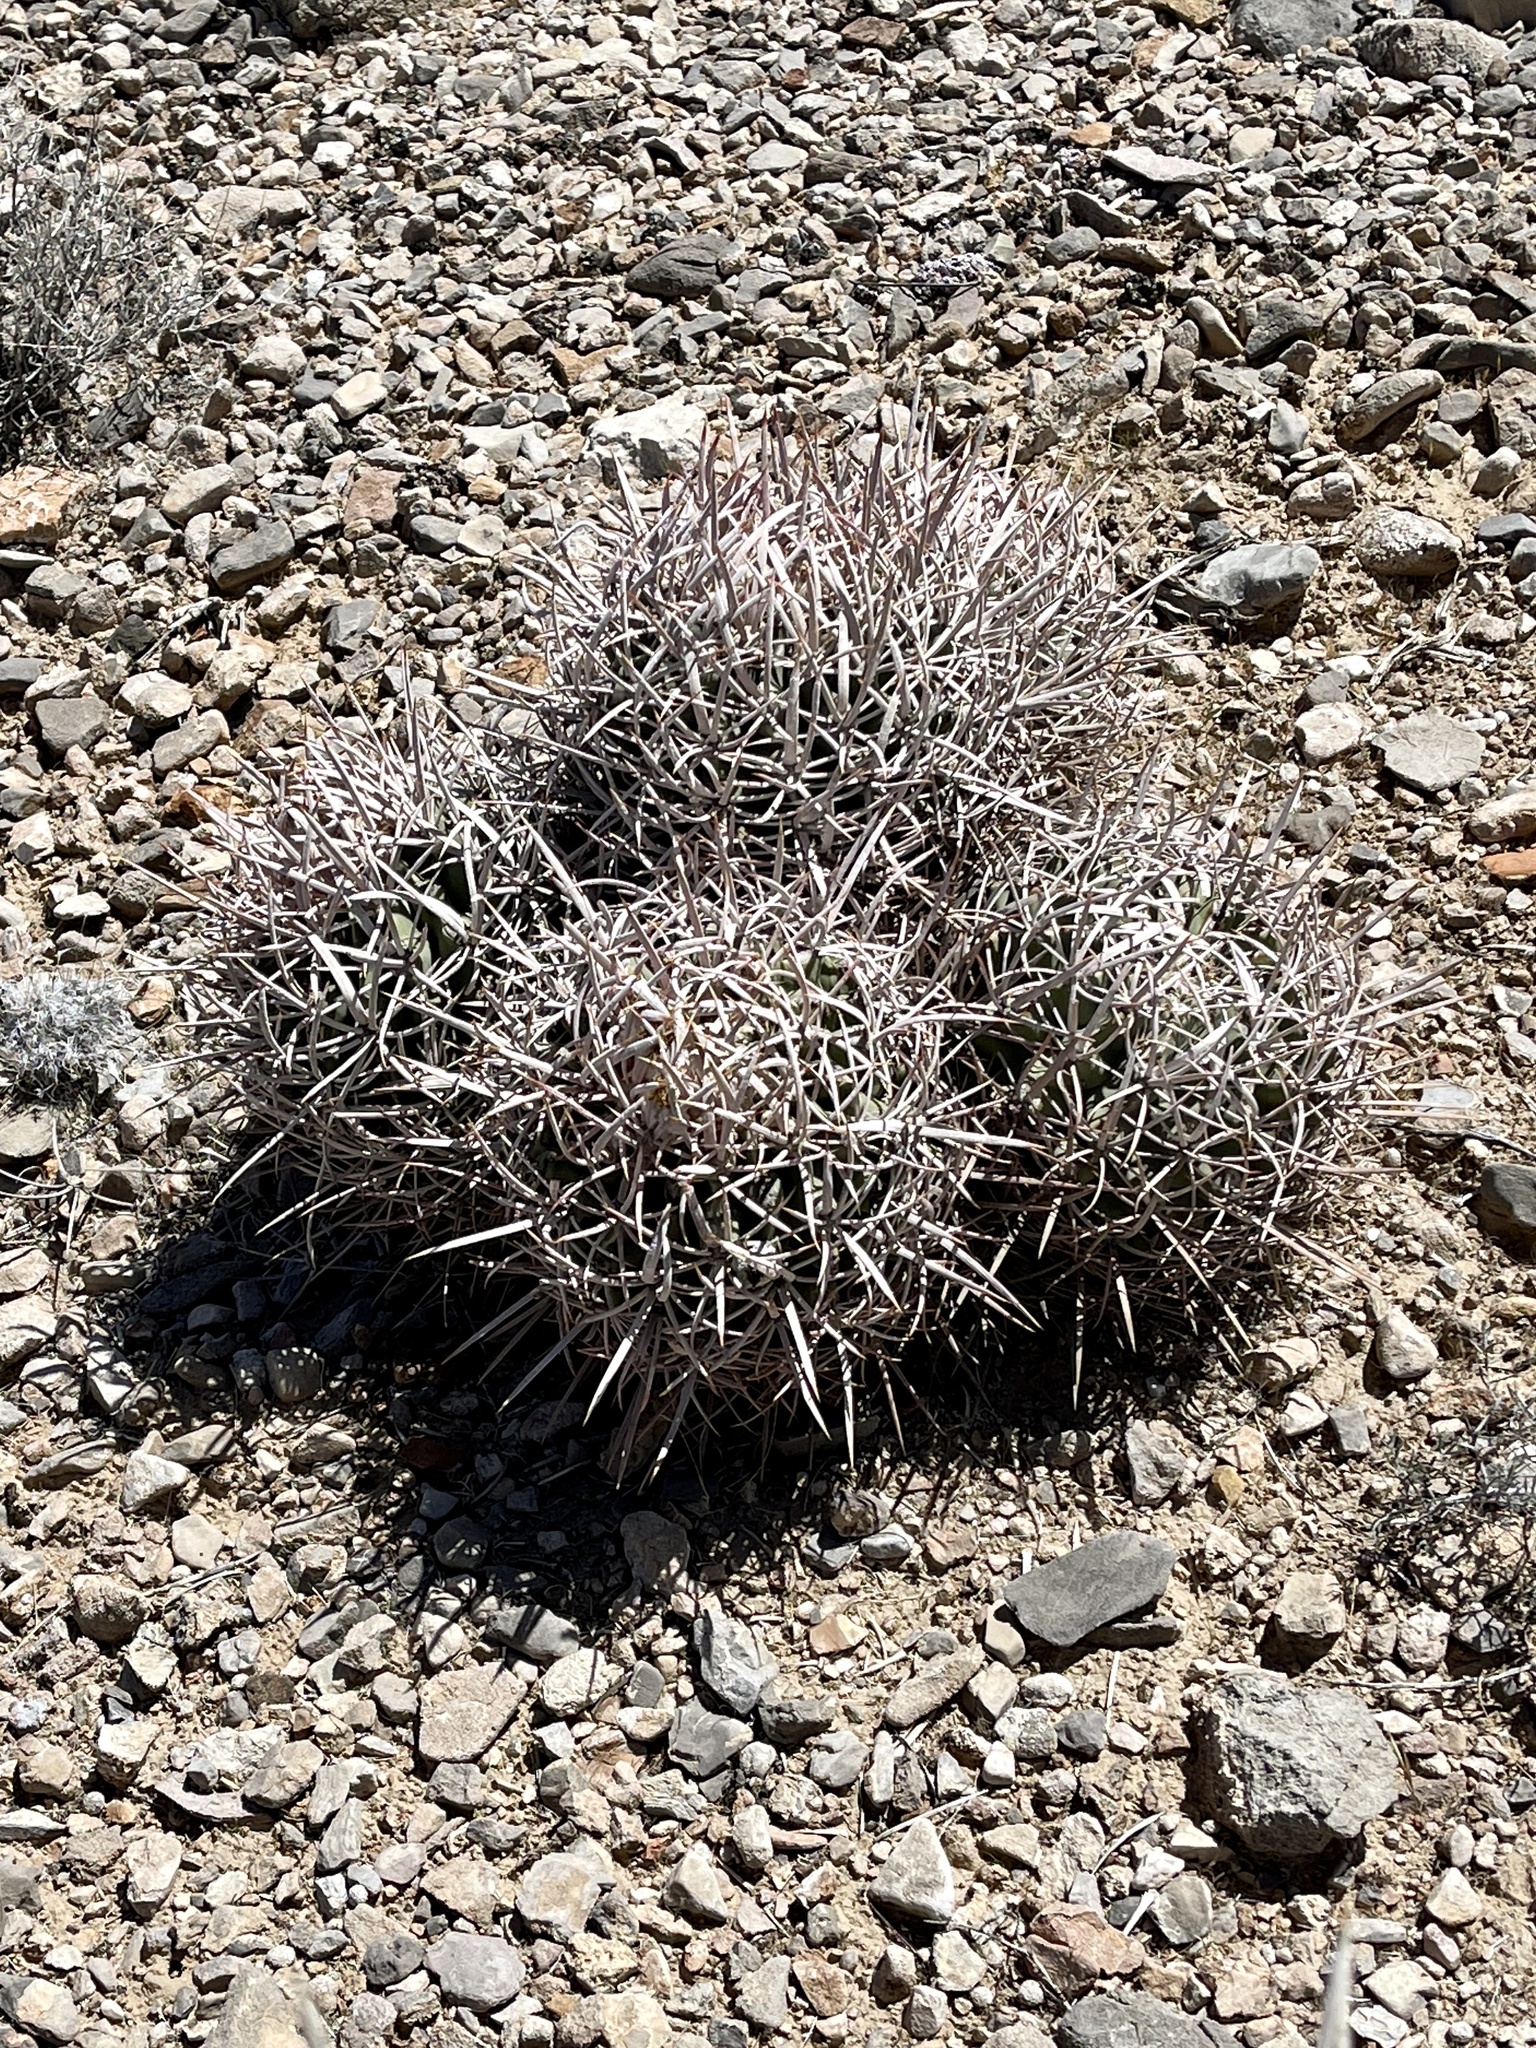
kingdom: Plantae
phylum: Tracheophyta
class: Magnoliopsida
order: Caryophyllales
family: Cactaceae
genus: Echinocactus
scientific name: Echinocactus polycephalus
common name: Cottontop cactus
